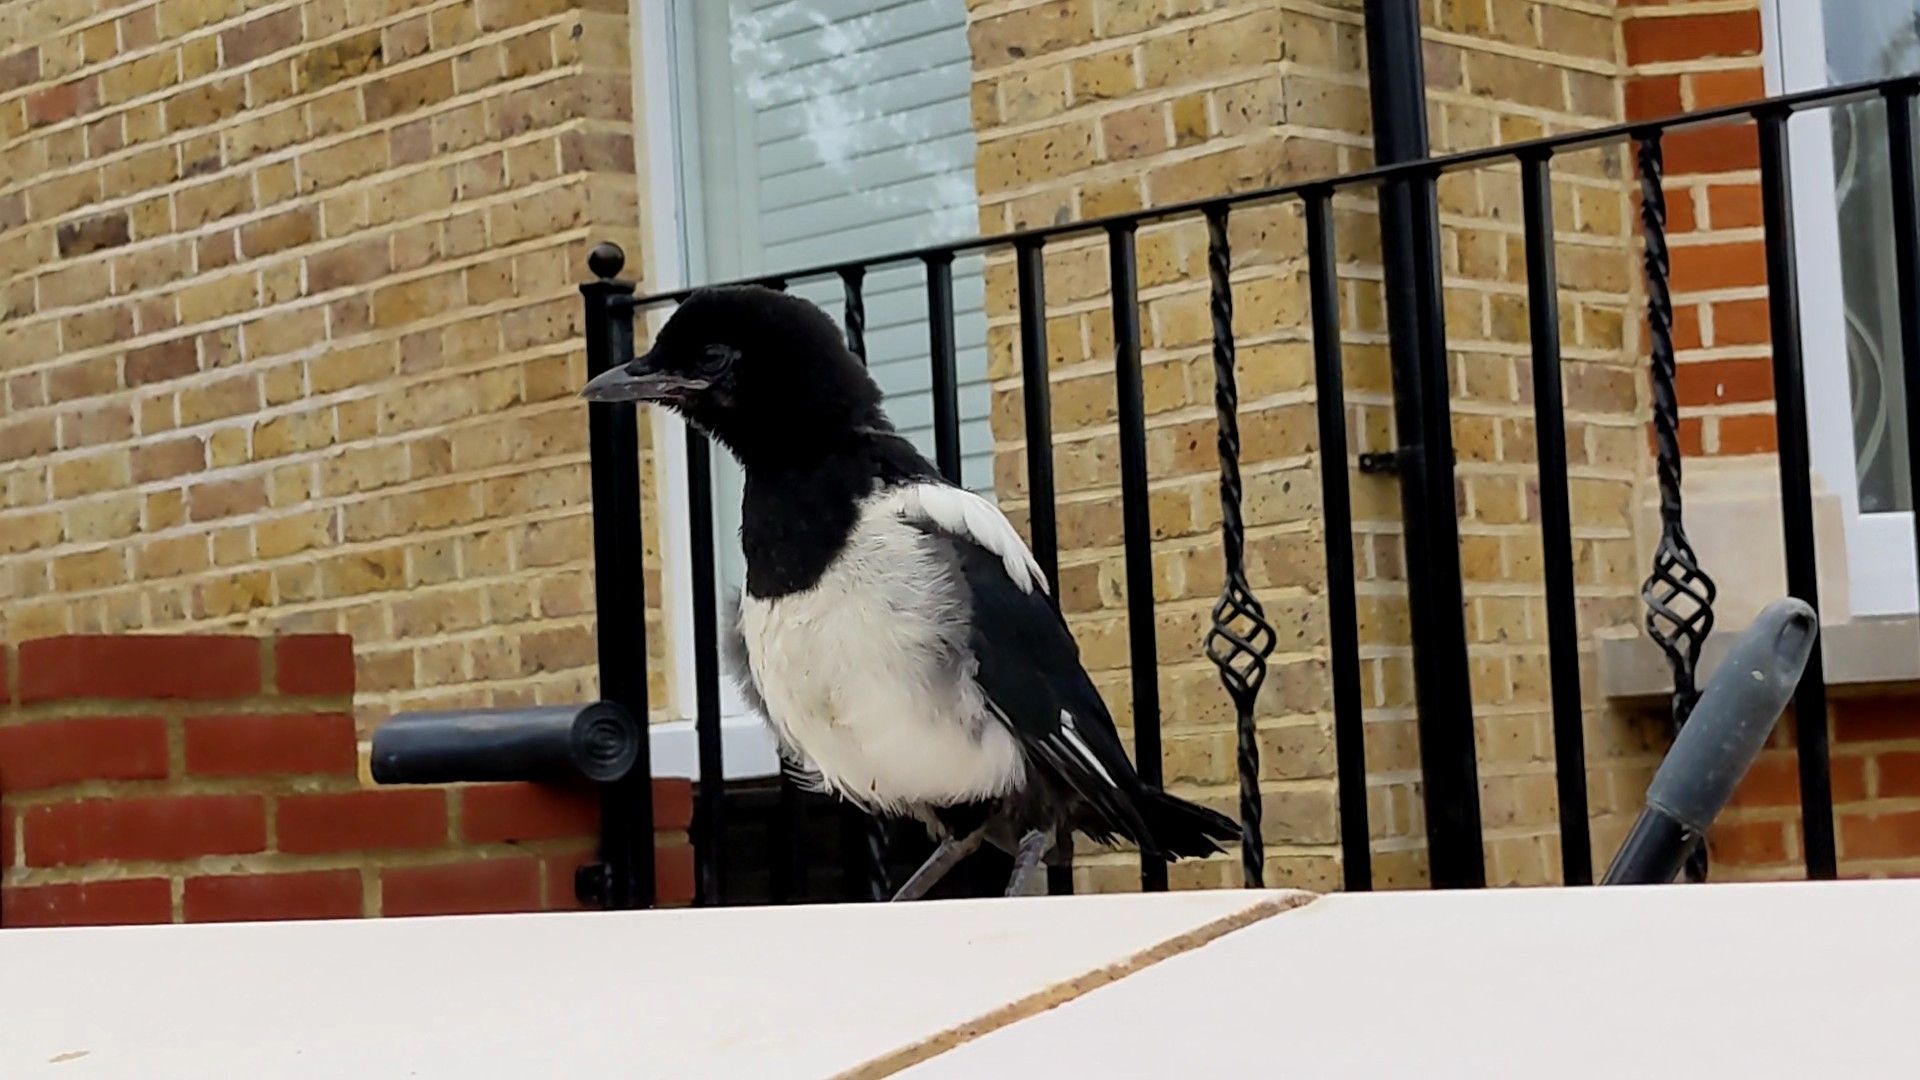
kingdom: Animalia
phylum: Chordata
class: Aves
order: Passeriformes
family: Corvidae
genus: Pica
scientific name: Pica pica
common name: Eurasian magpie
